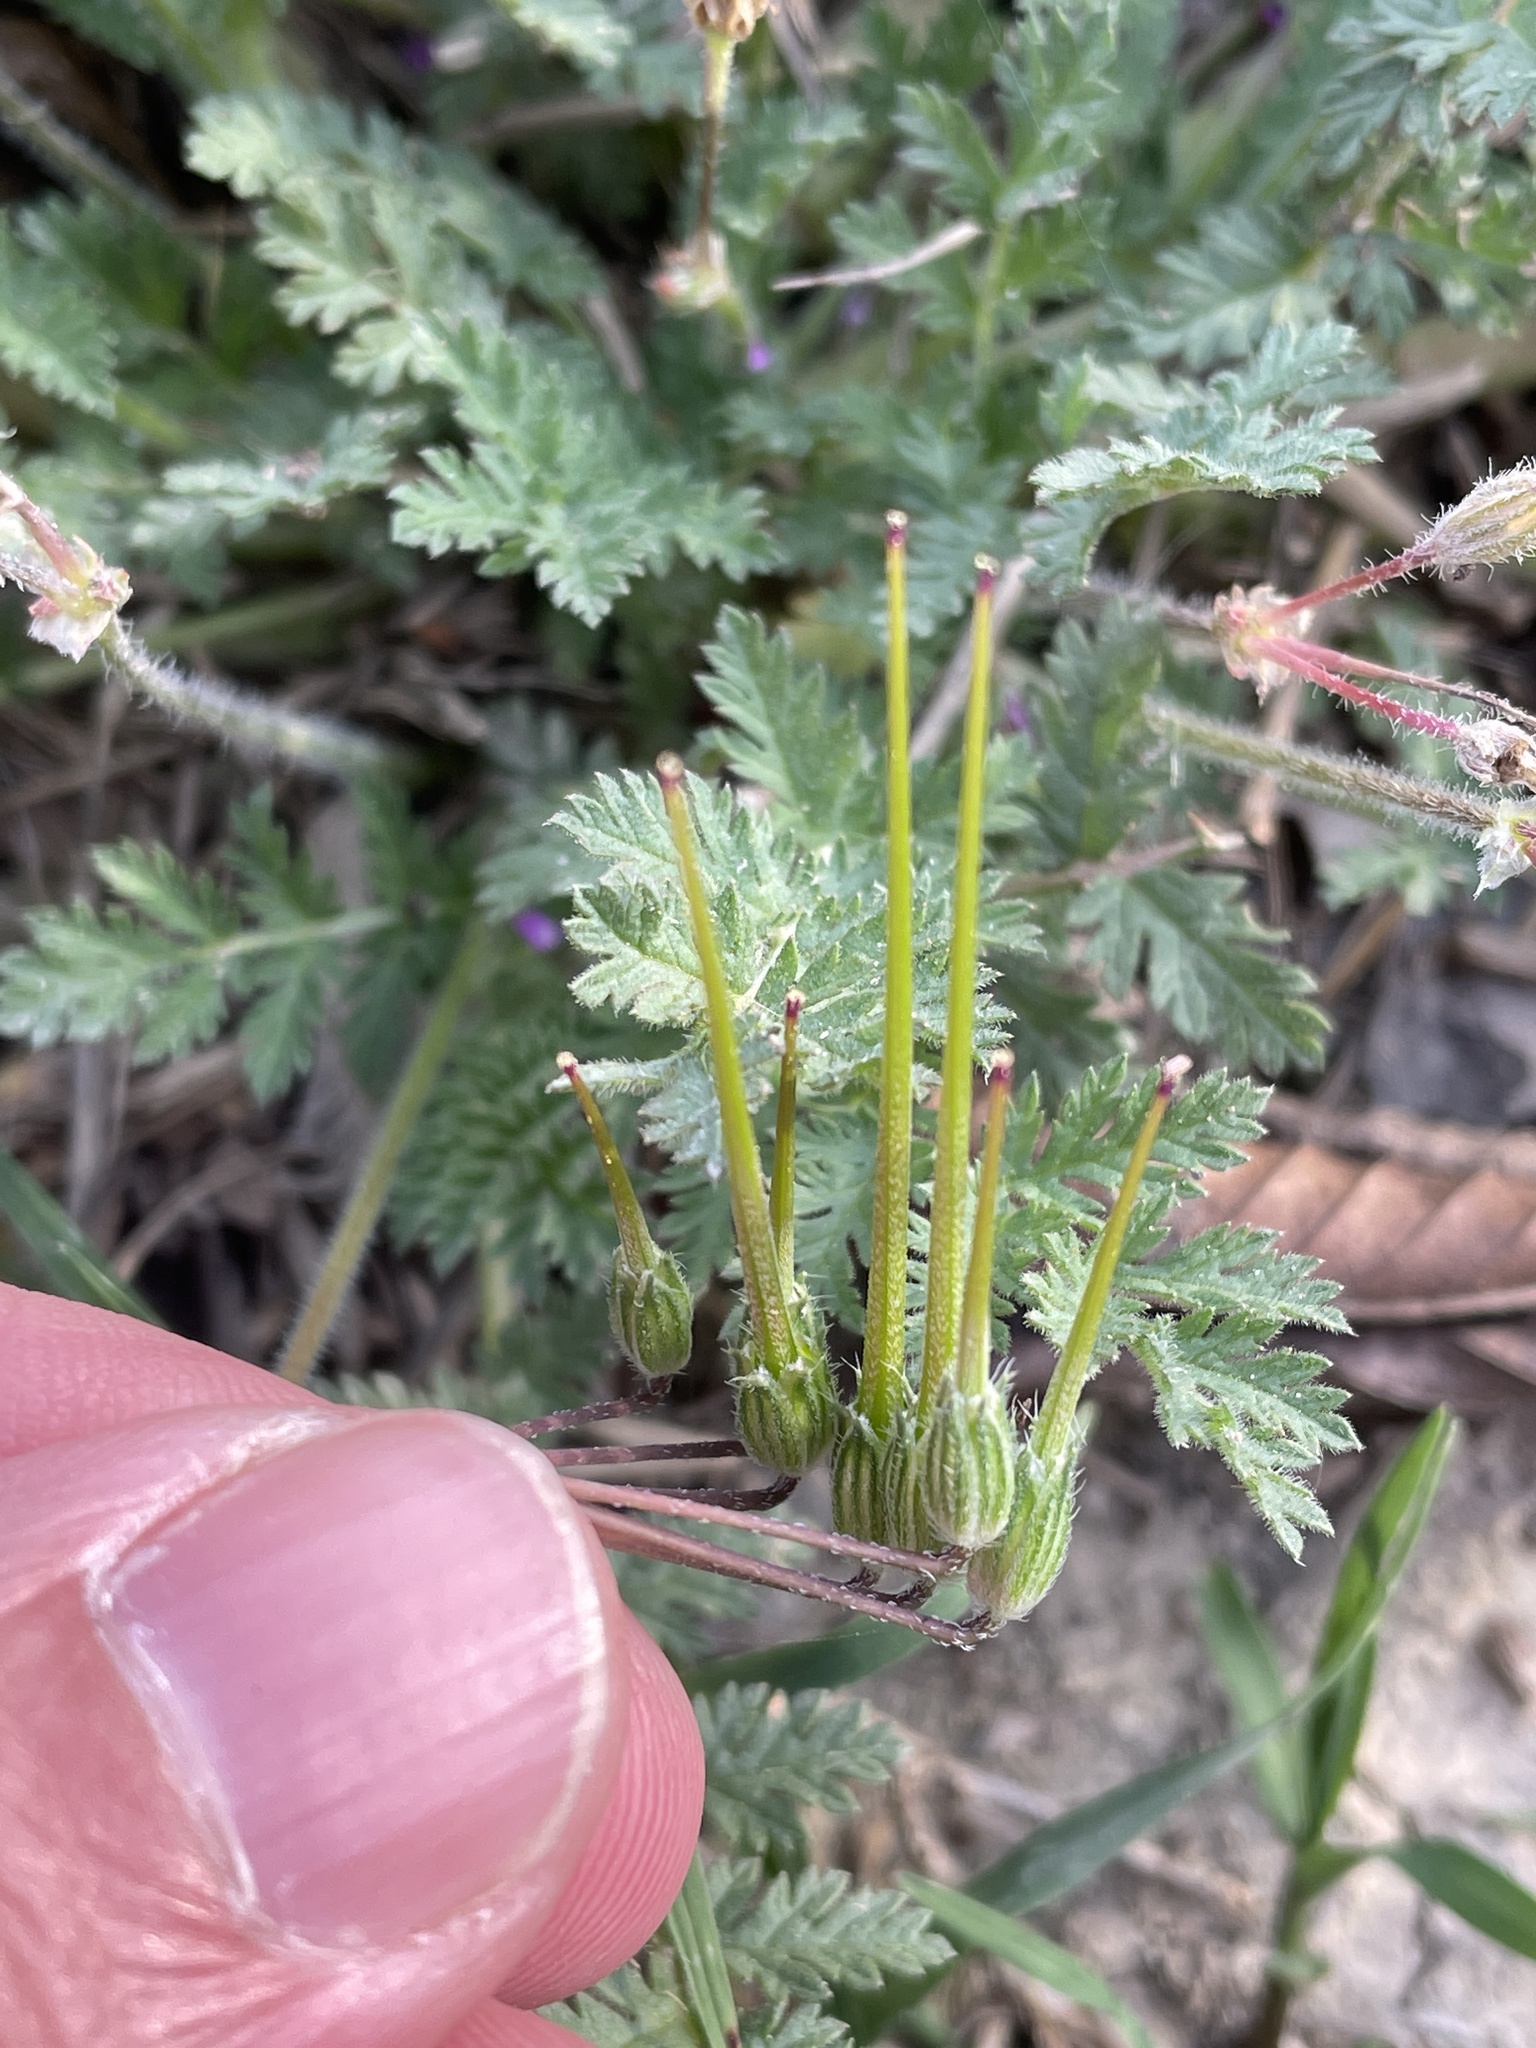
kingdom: Plantae
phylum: Tracheophyta
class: Magnoliopsida
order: Geraniales
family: Geraniaceae
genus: Erodium
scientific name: Erodium cicutarium
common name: Common stork's-bill
